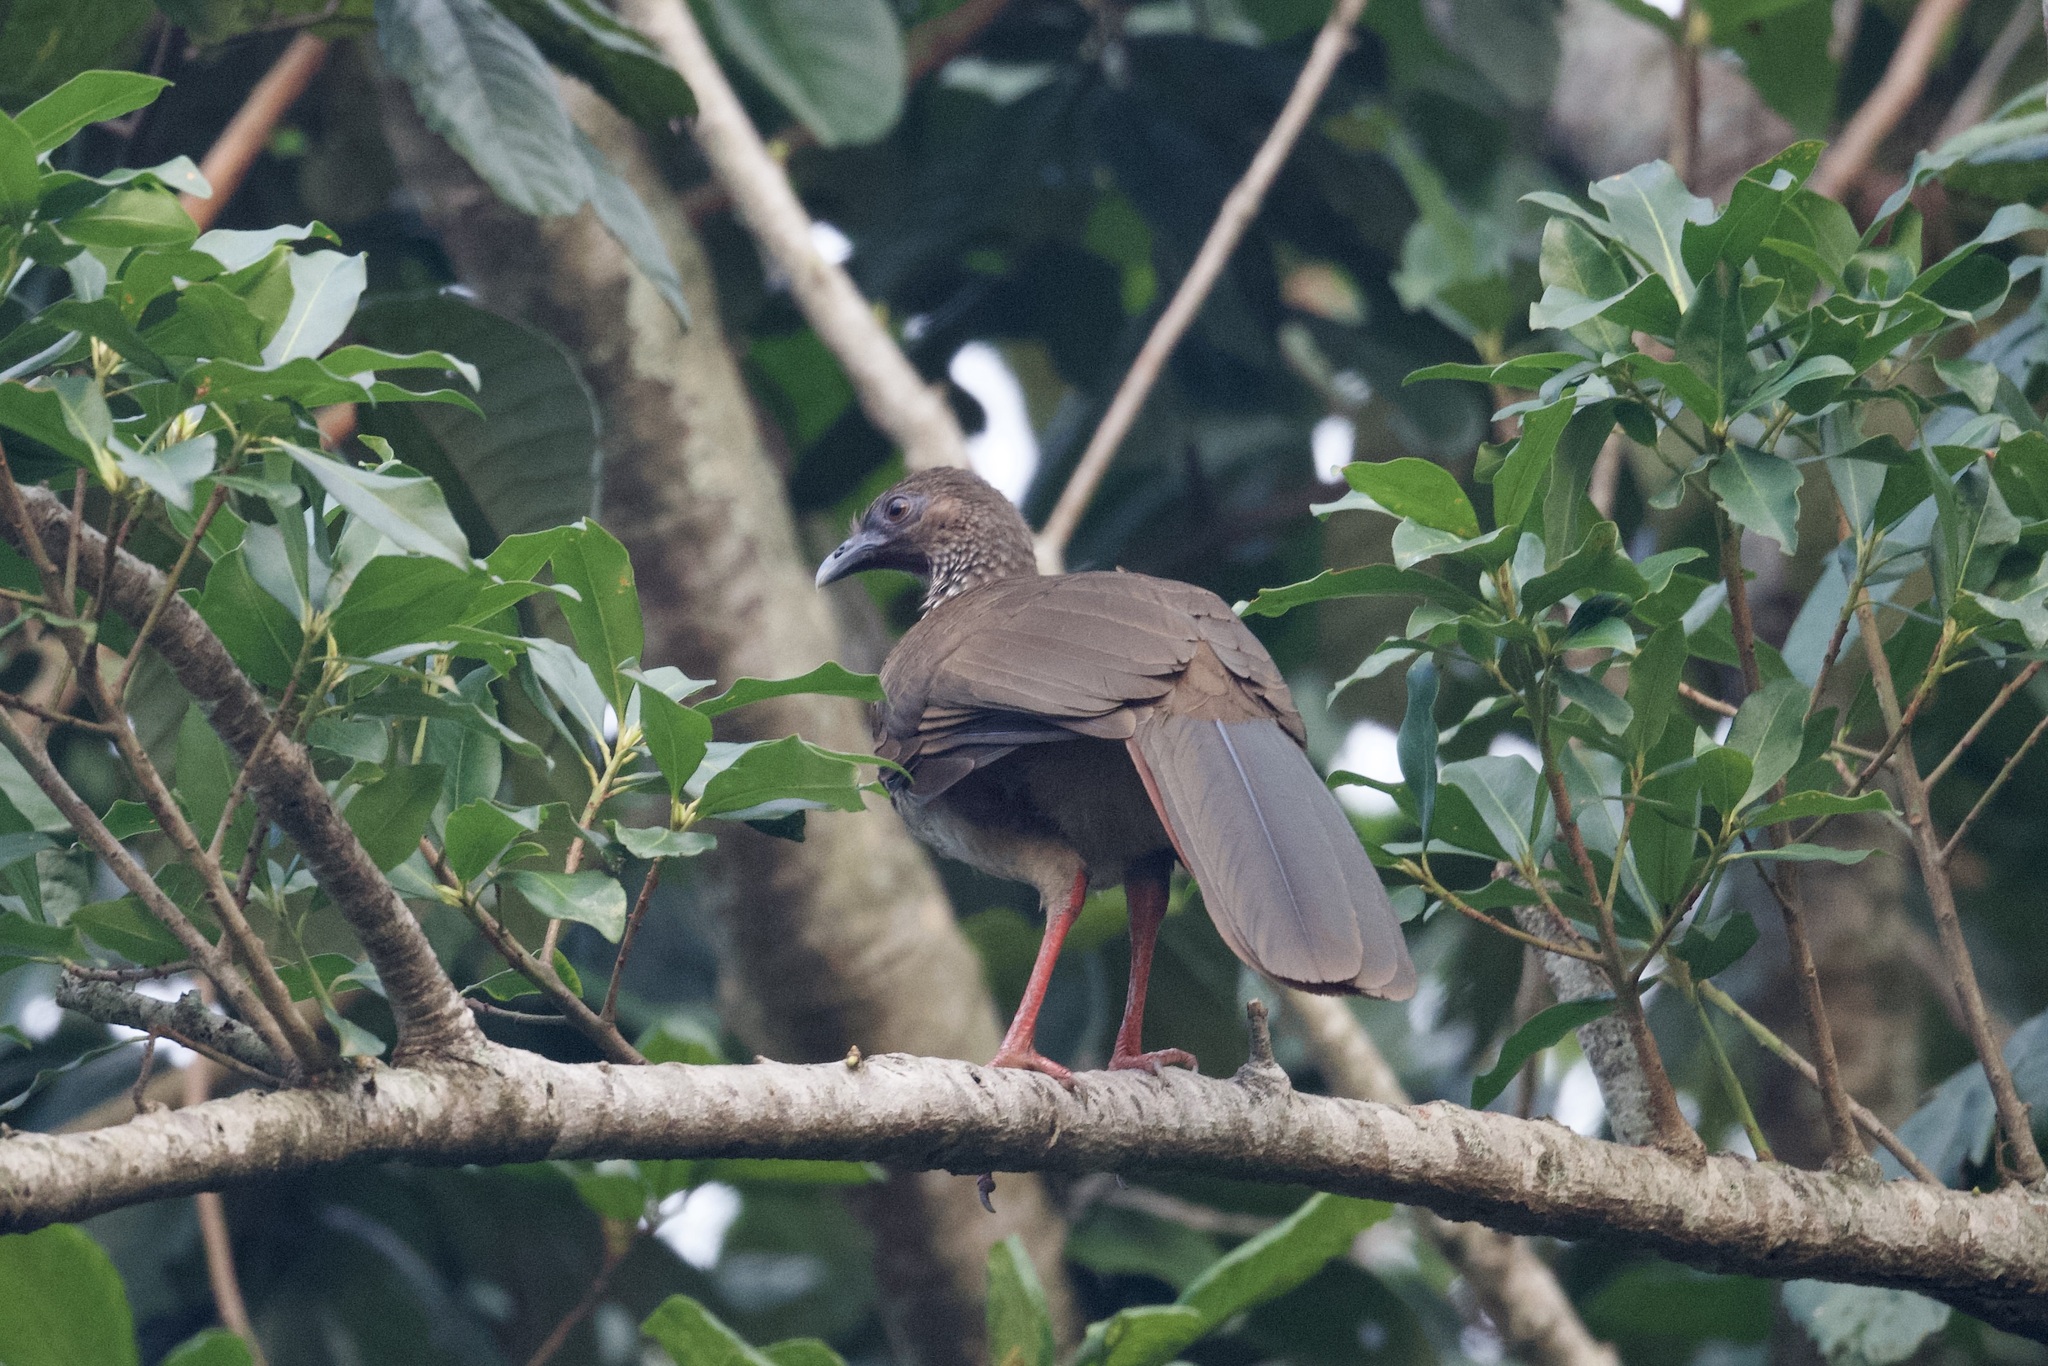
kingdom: Animalia
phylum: Chordata
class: Aves
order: Galliformes
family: Cracidae
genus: Ortalis
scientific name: Ortalis guttata
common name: Speckled chachalaca
